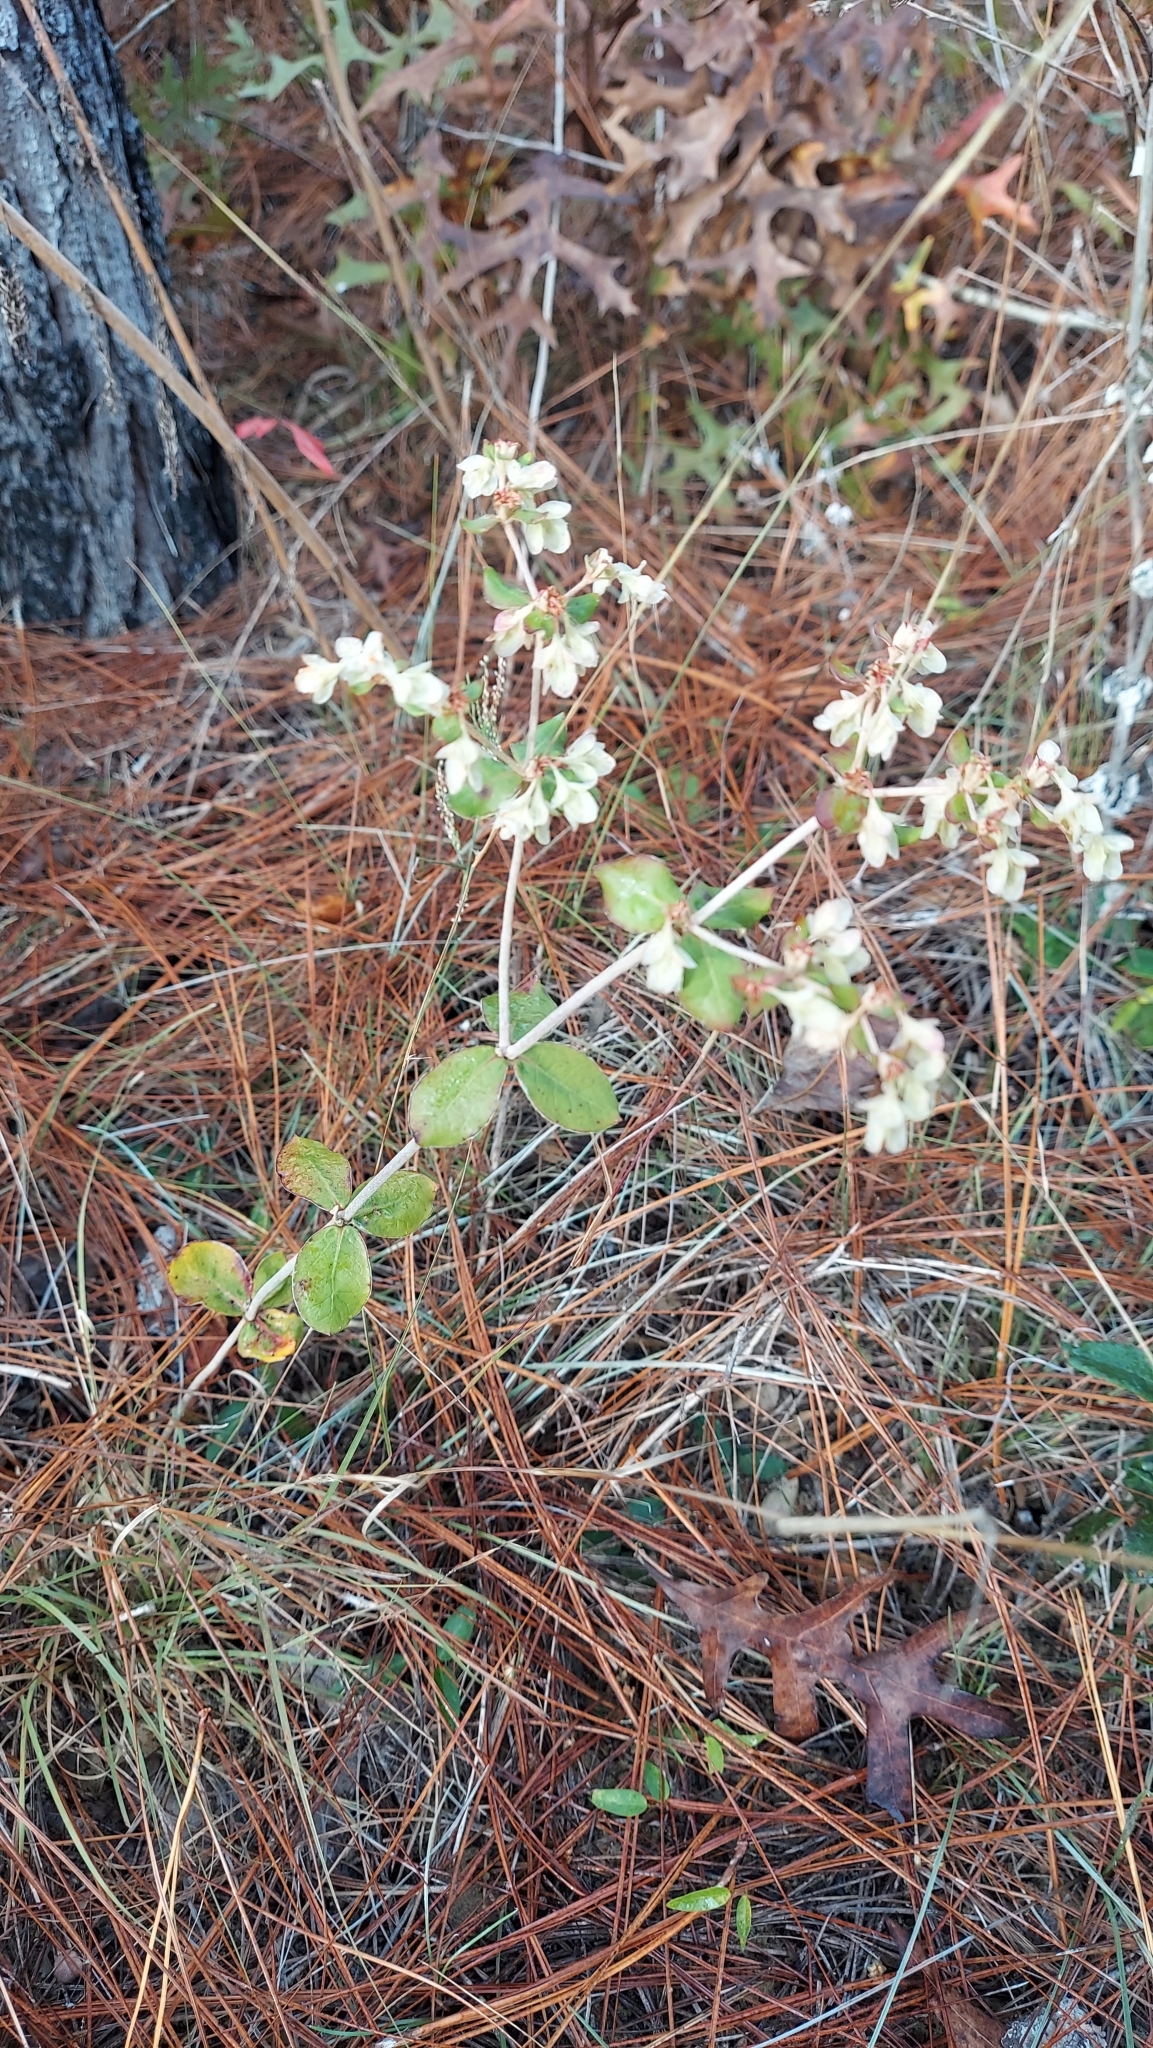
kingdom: Plantae
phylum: Tracheophyta
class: Magnoliopsida
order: Caryophyllales
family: Polygonaceae
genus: Eriogonum
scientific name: Eriogonum tomentosum
